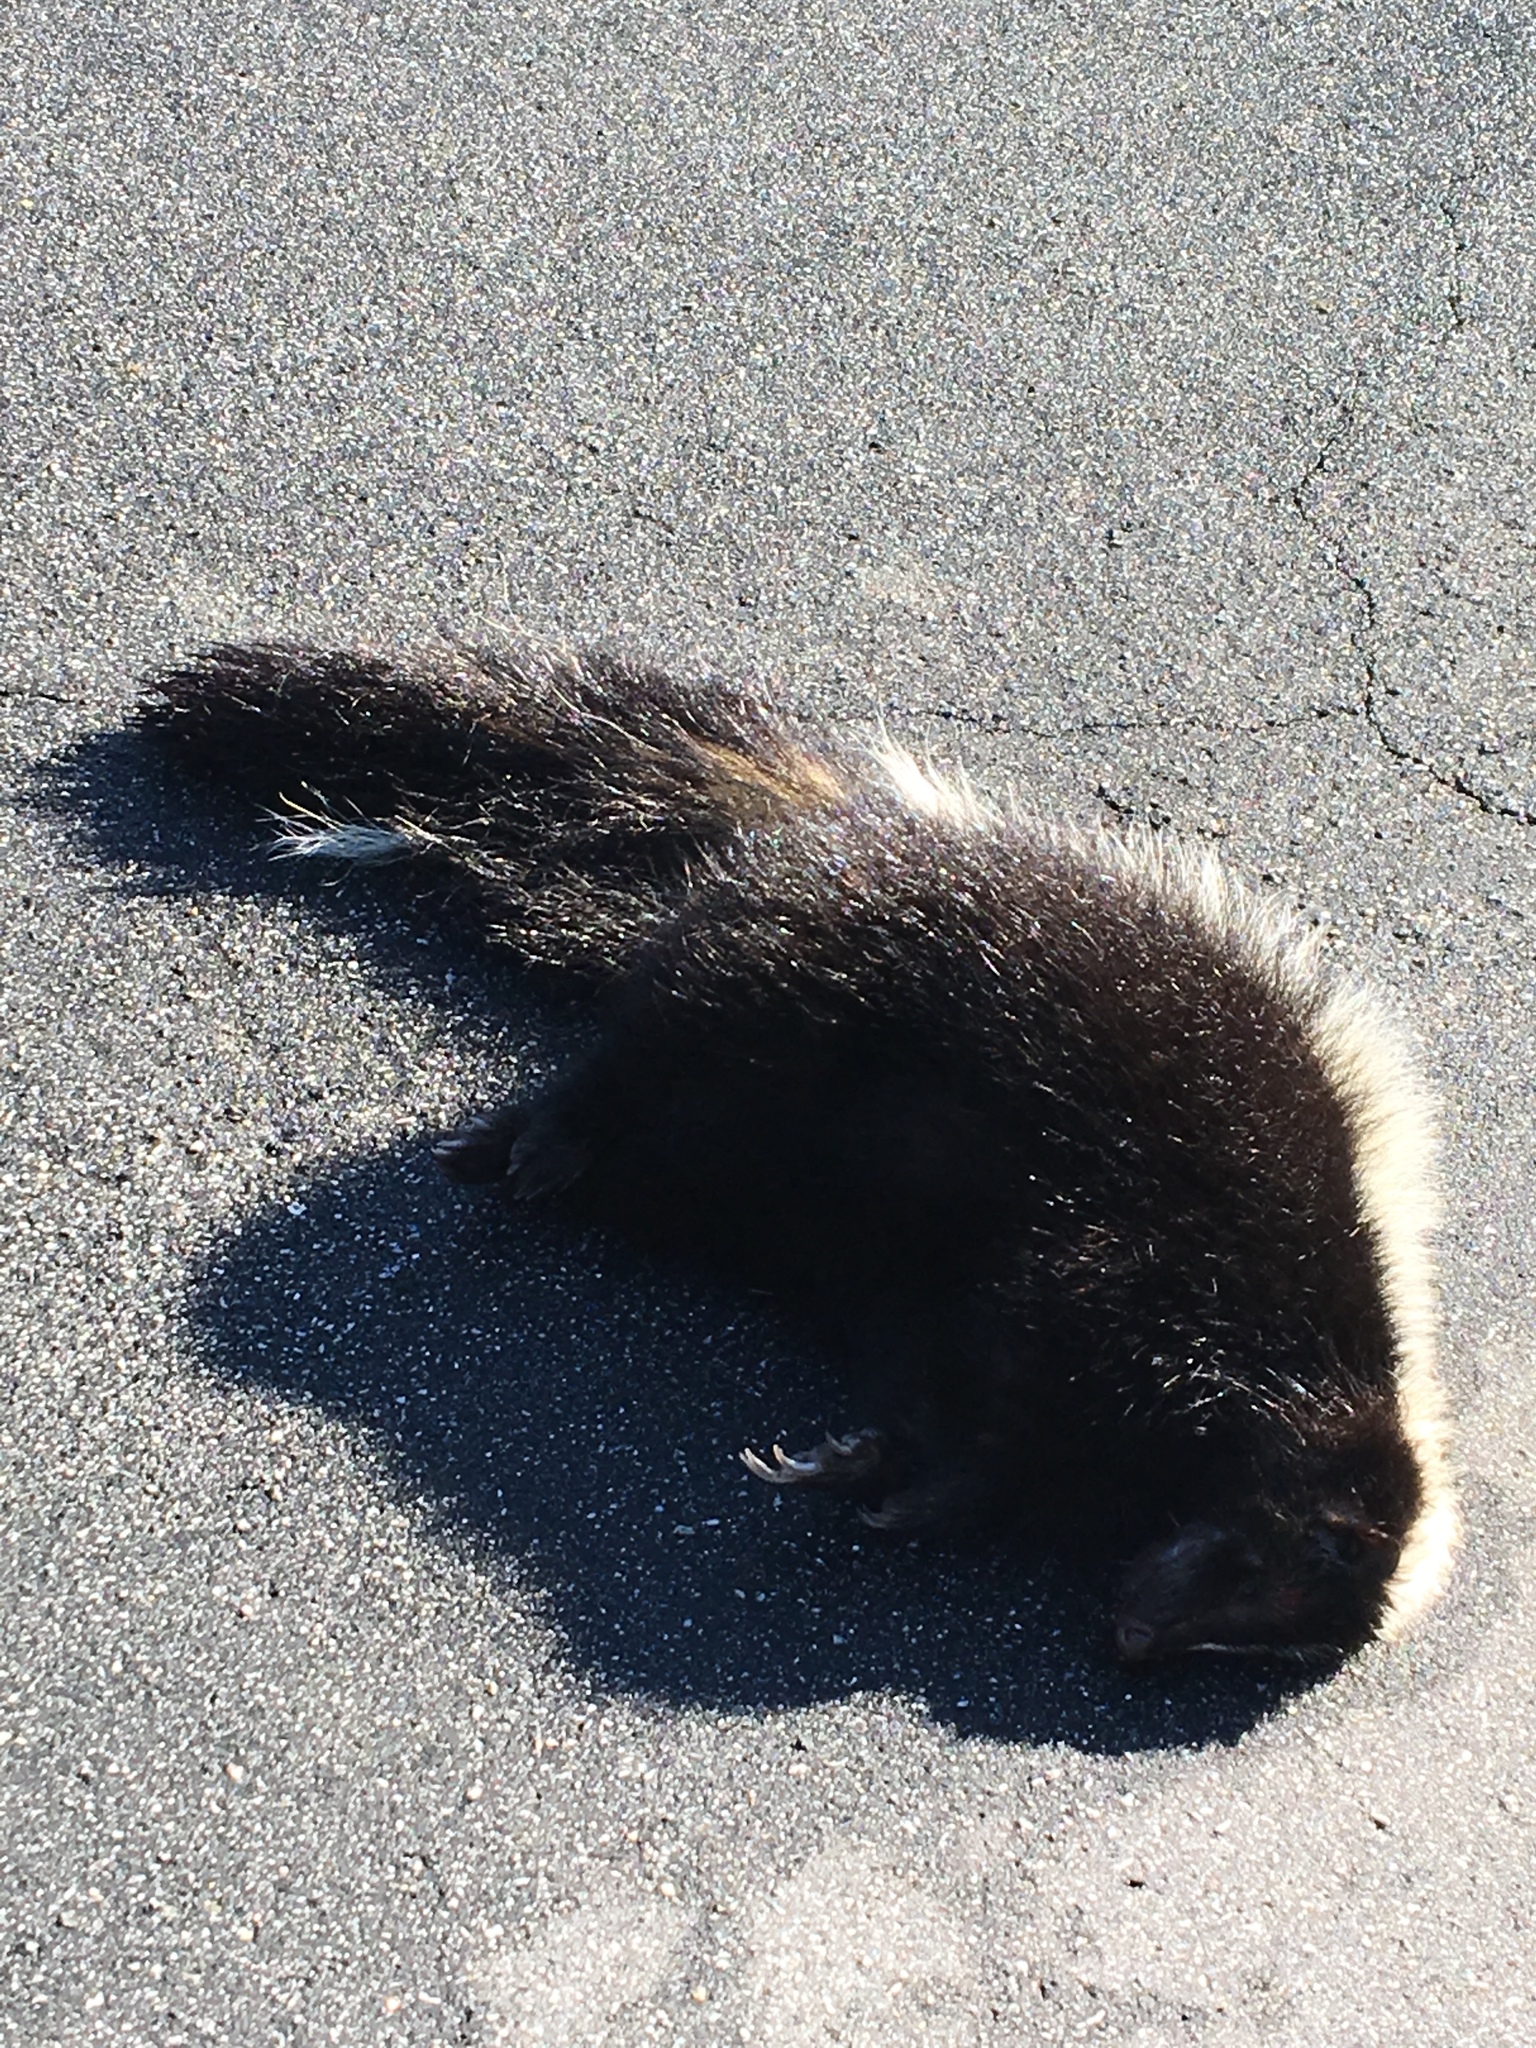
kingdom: Animalia
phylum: Chordata
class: Mammalia
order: Carnivora
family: Mephitidae
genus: Mephitis
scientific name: Mephitis mephitis
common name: Striped skunk
